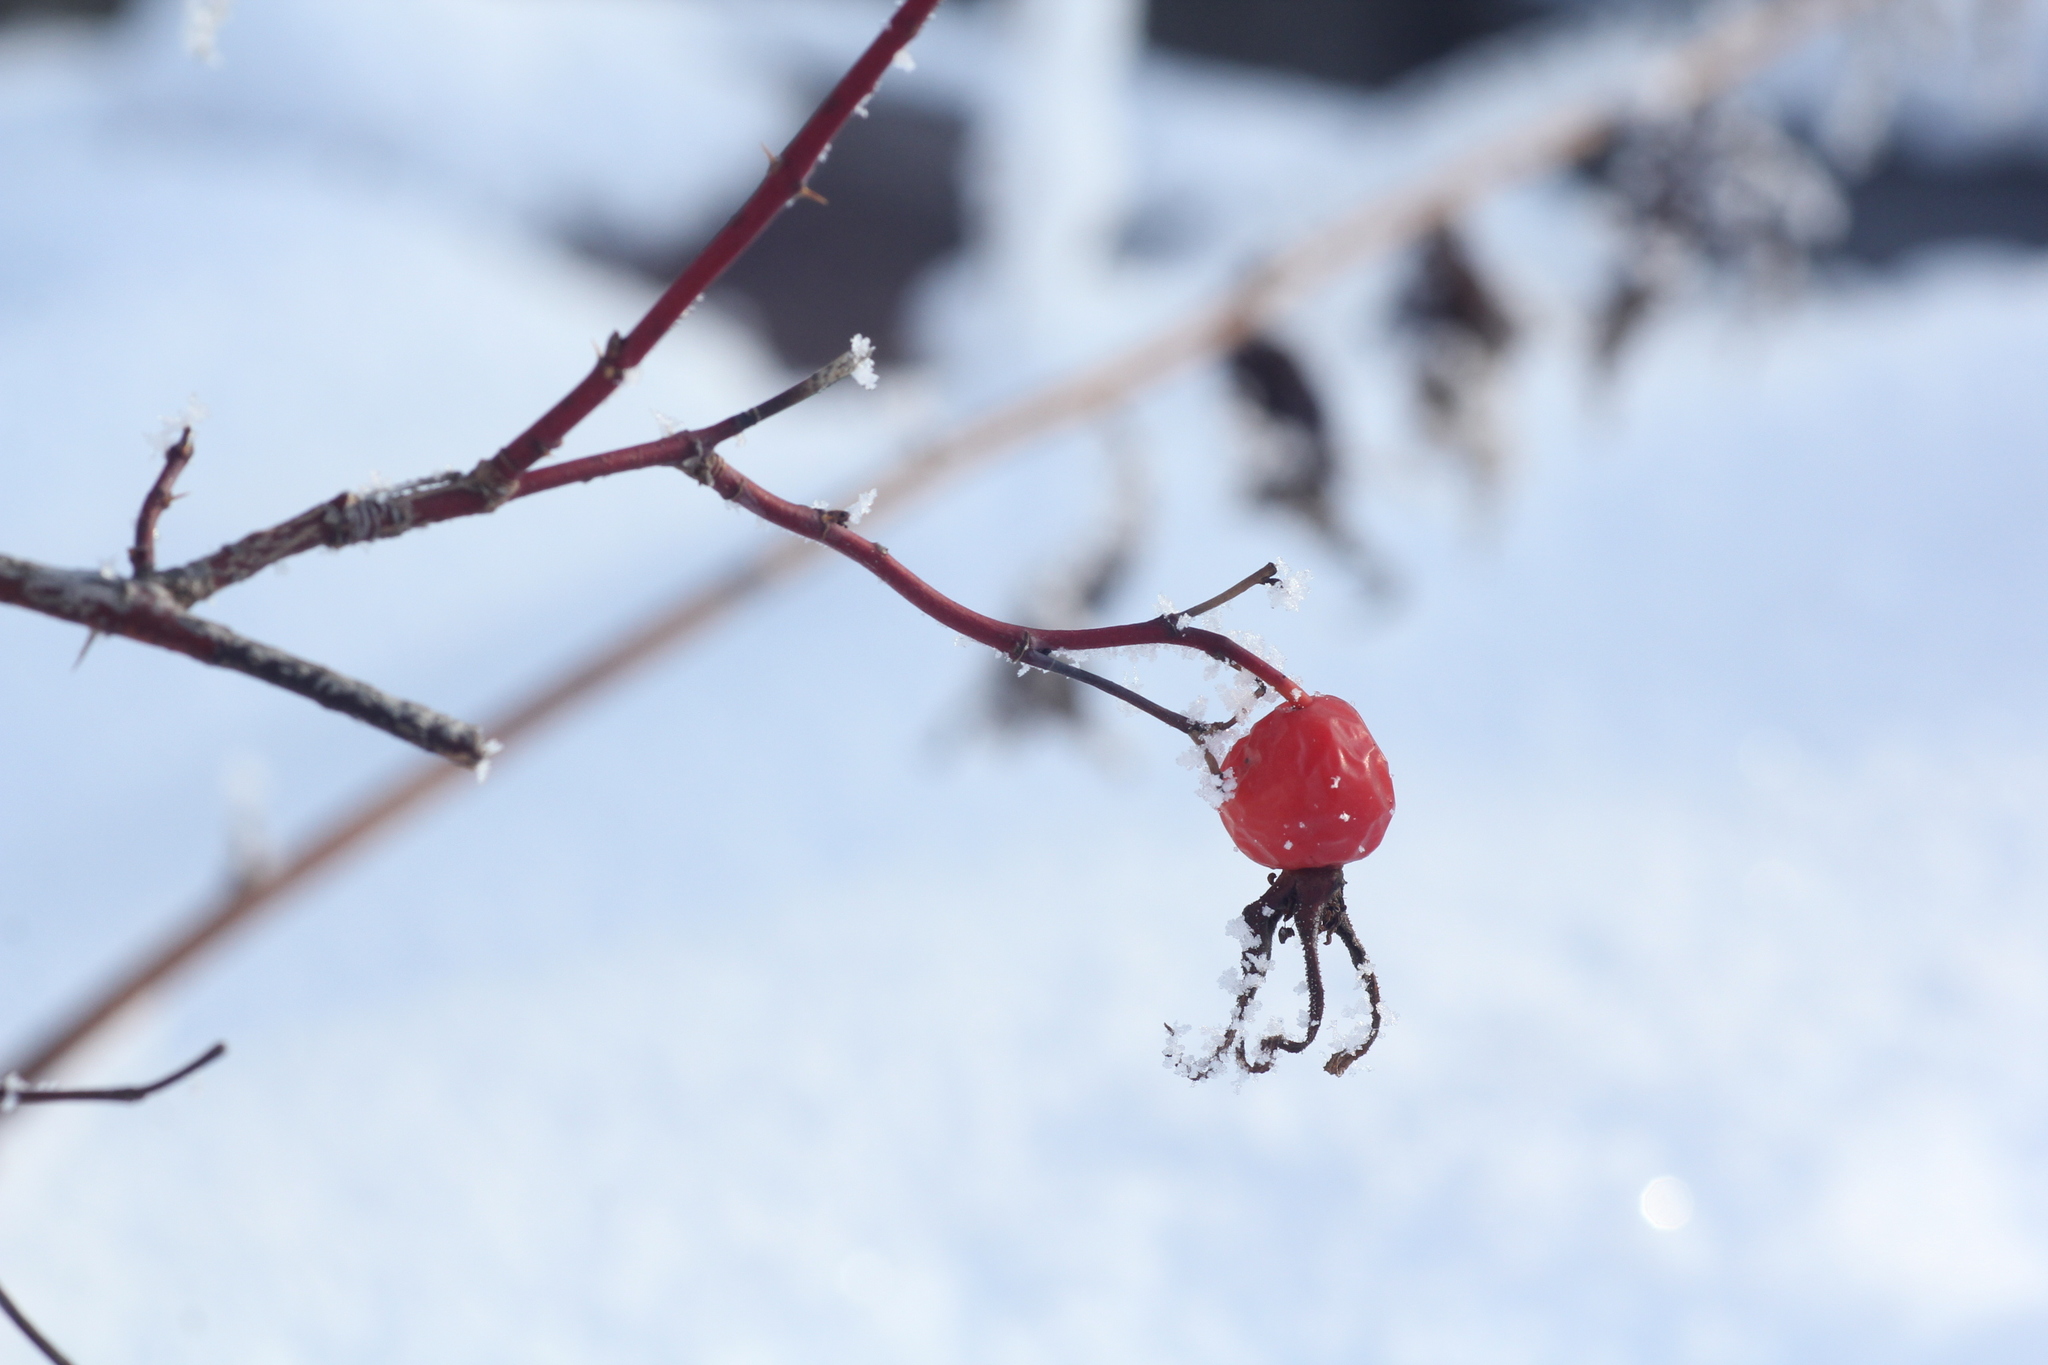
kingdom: Plantae
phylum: Tracheophyta
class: Magnoliopsida
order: Rosales
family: Rosaceae
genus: Rosa
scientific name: Rosa majalis
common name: Cinnamon rose
